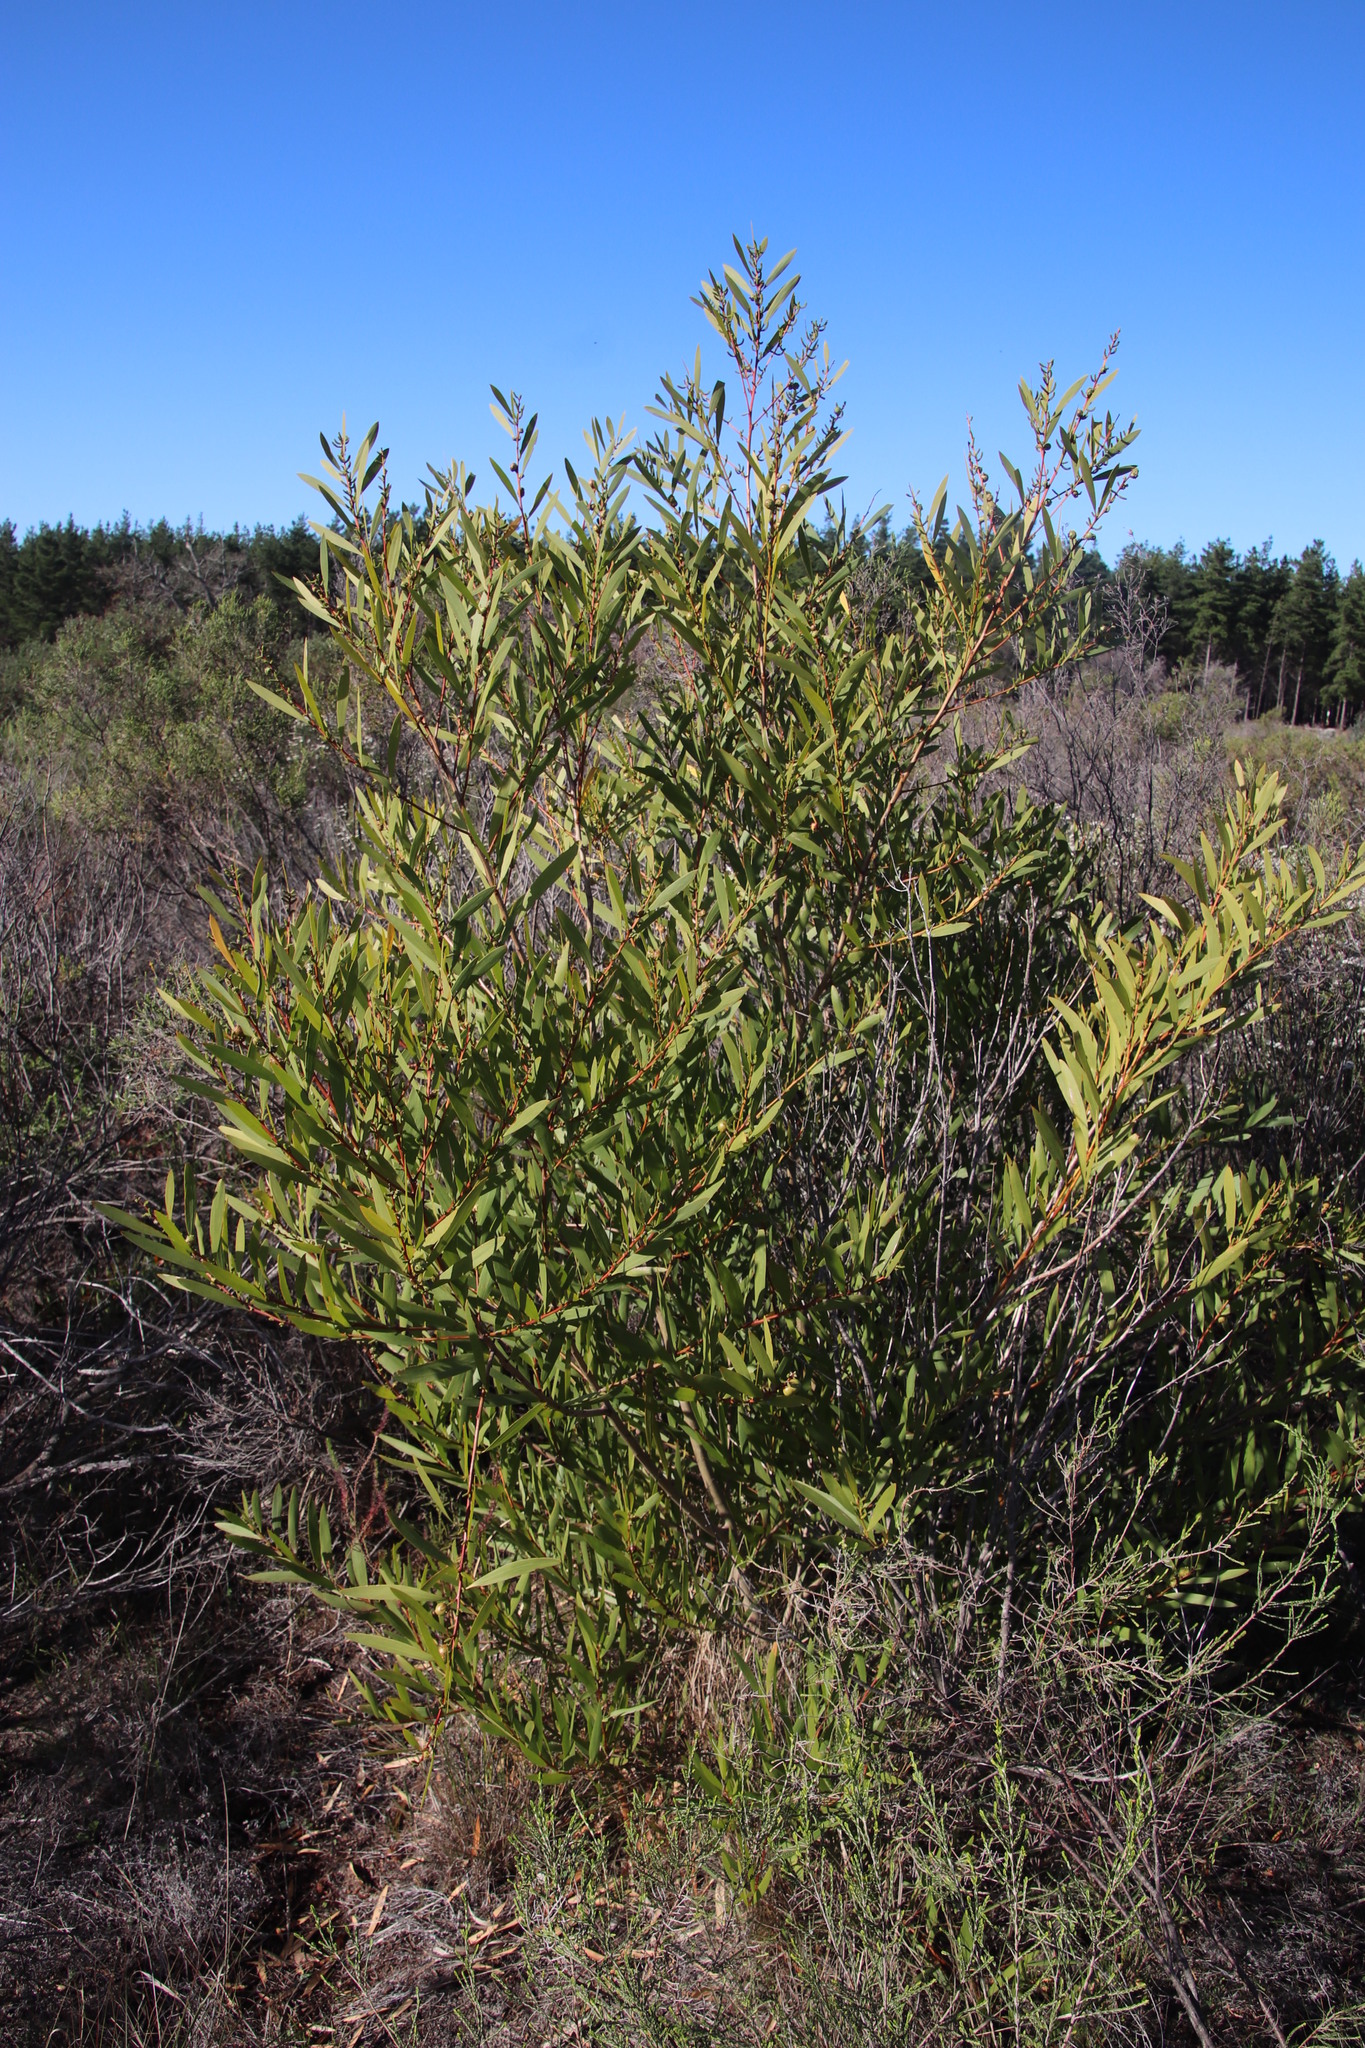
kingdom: Plantae
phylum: Tracheophyta
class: Magnoliopsida
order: Fabales
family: Fabaceae
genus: Acacia
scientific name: Acacia longifolia
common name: Sydney golden wattle
